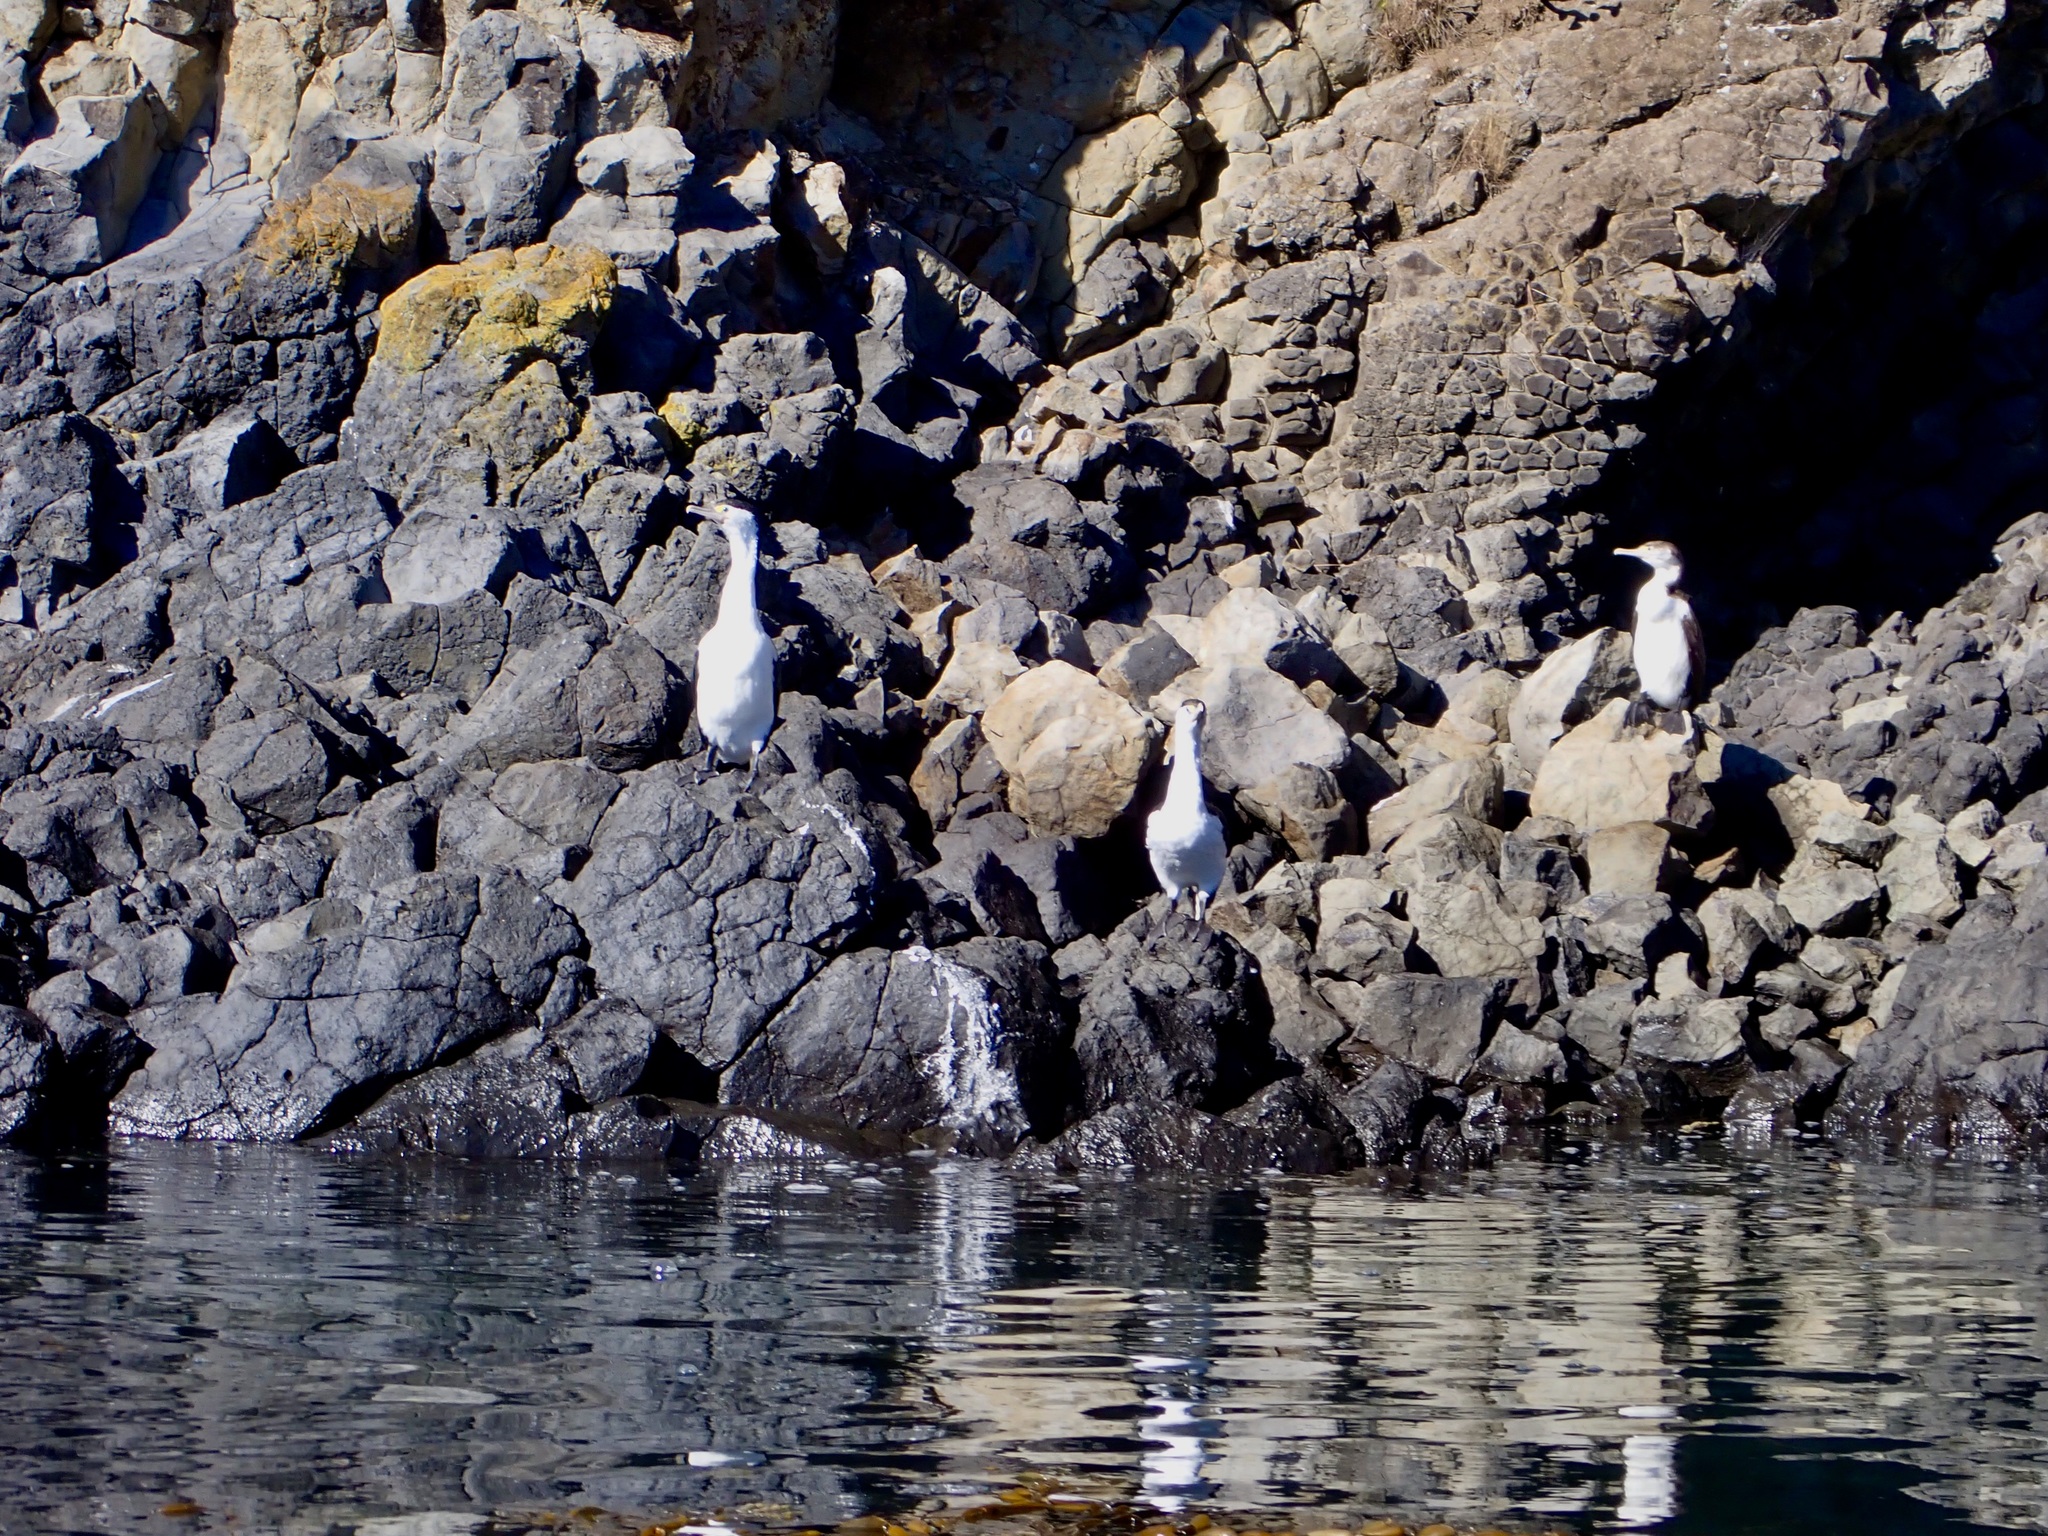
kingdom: Animalia
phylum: Chordata
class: Aves
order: Suliformes
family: Phalacrocoracidae
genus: Phalacrocorax
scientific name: Phalacrocorax varius
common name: Pied cormorant
